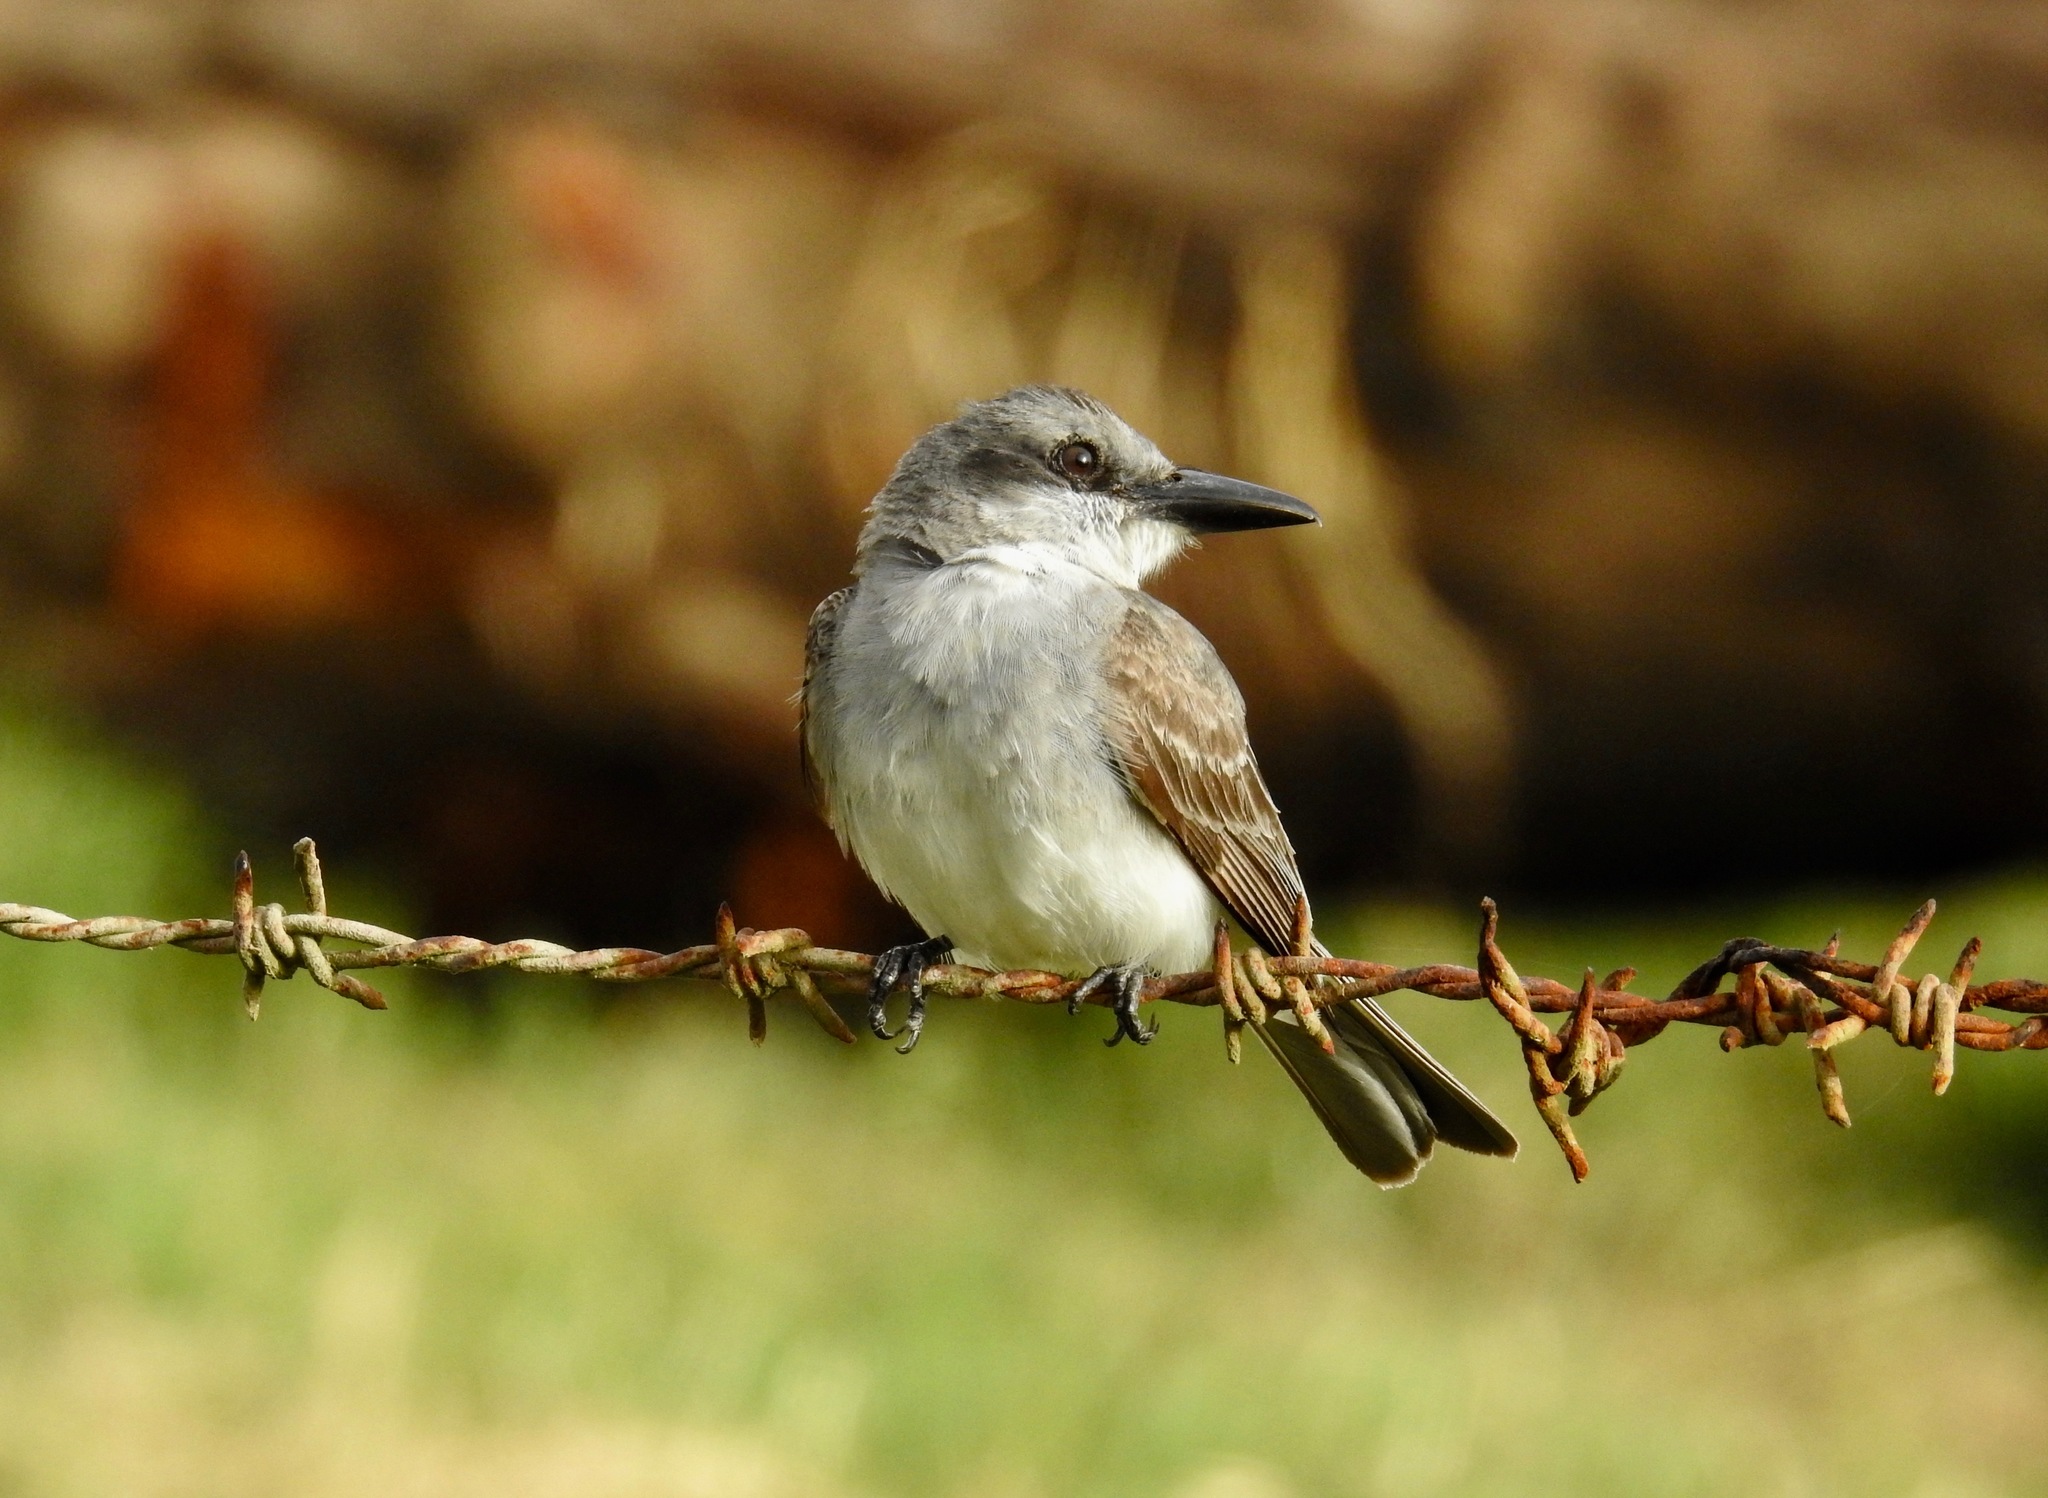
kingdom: Animalia
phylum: Chordata
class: Aves
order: Passeriformes
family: Tyrannidae
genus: Tyrannus
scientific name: Tyrannus dominicensis
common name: Gray kingbird
